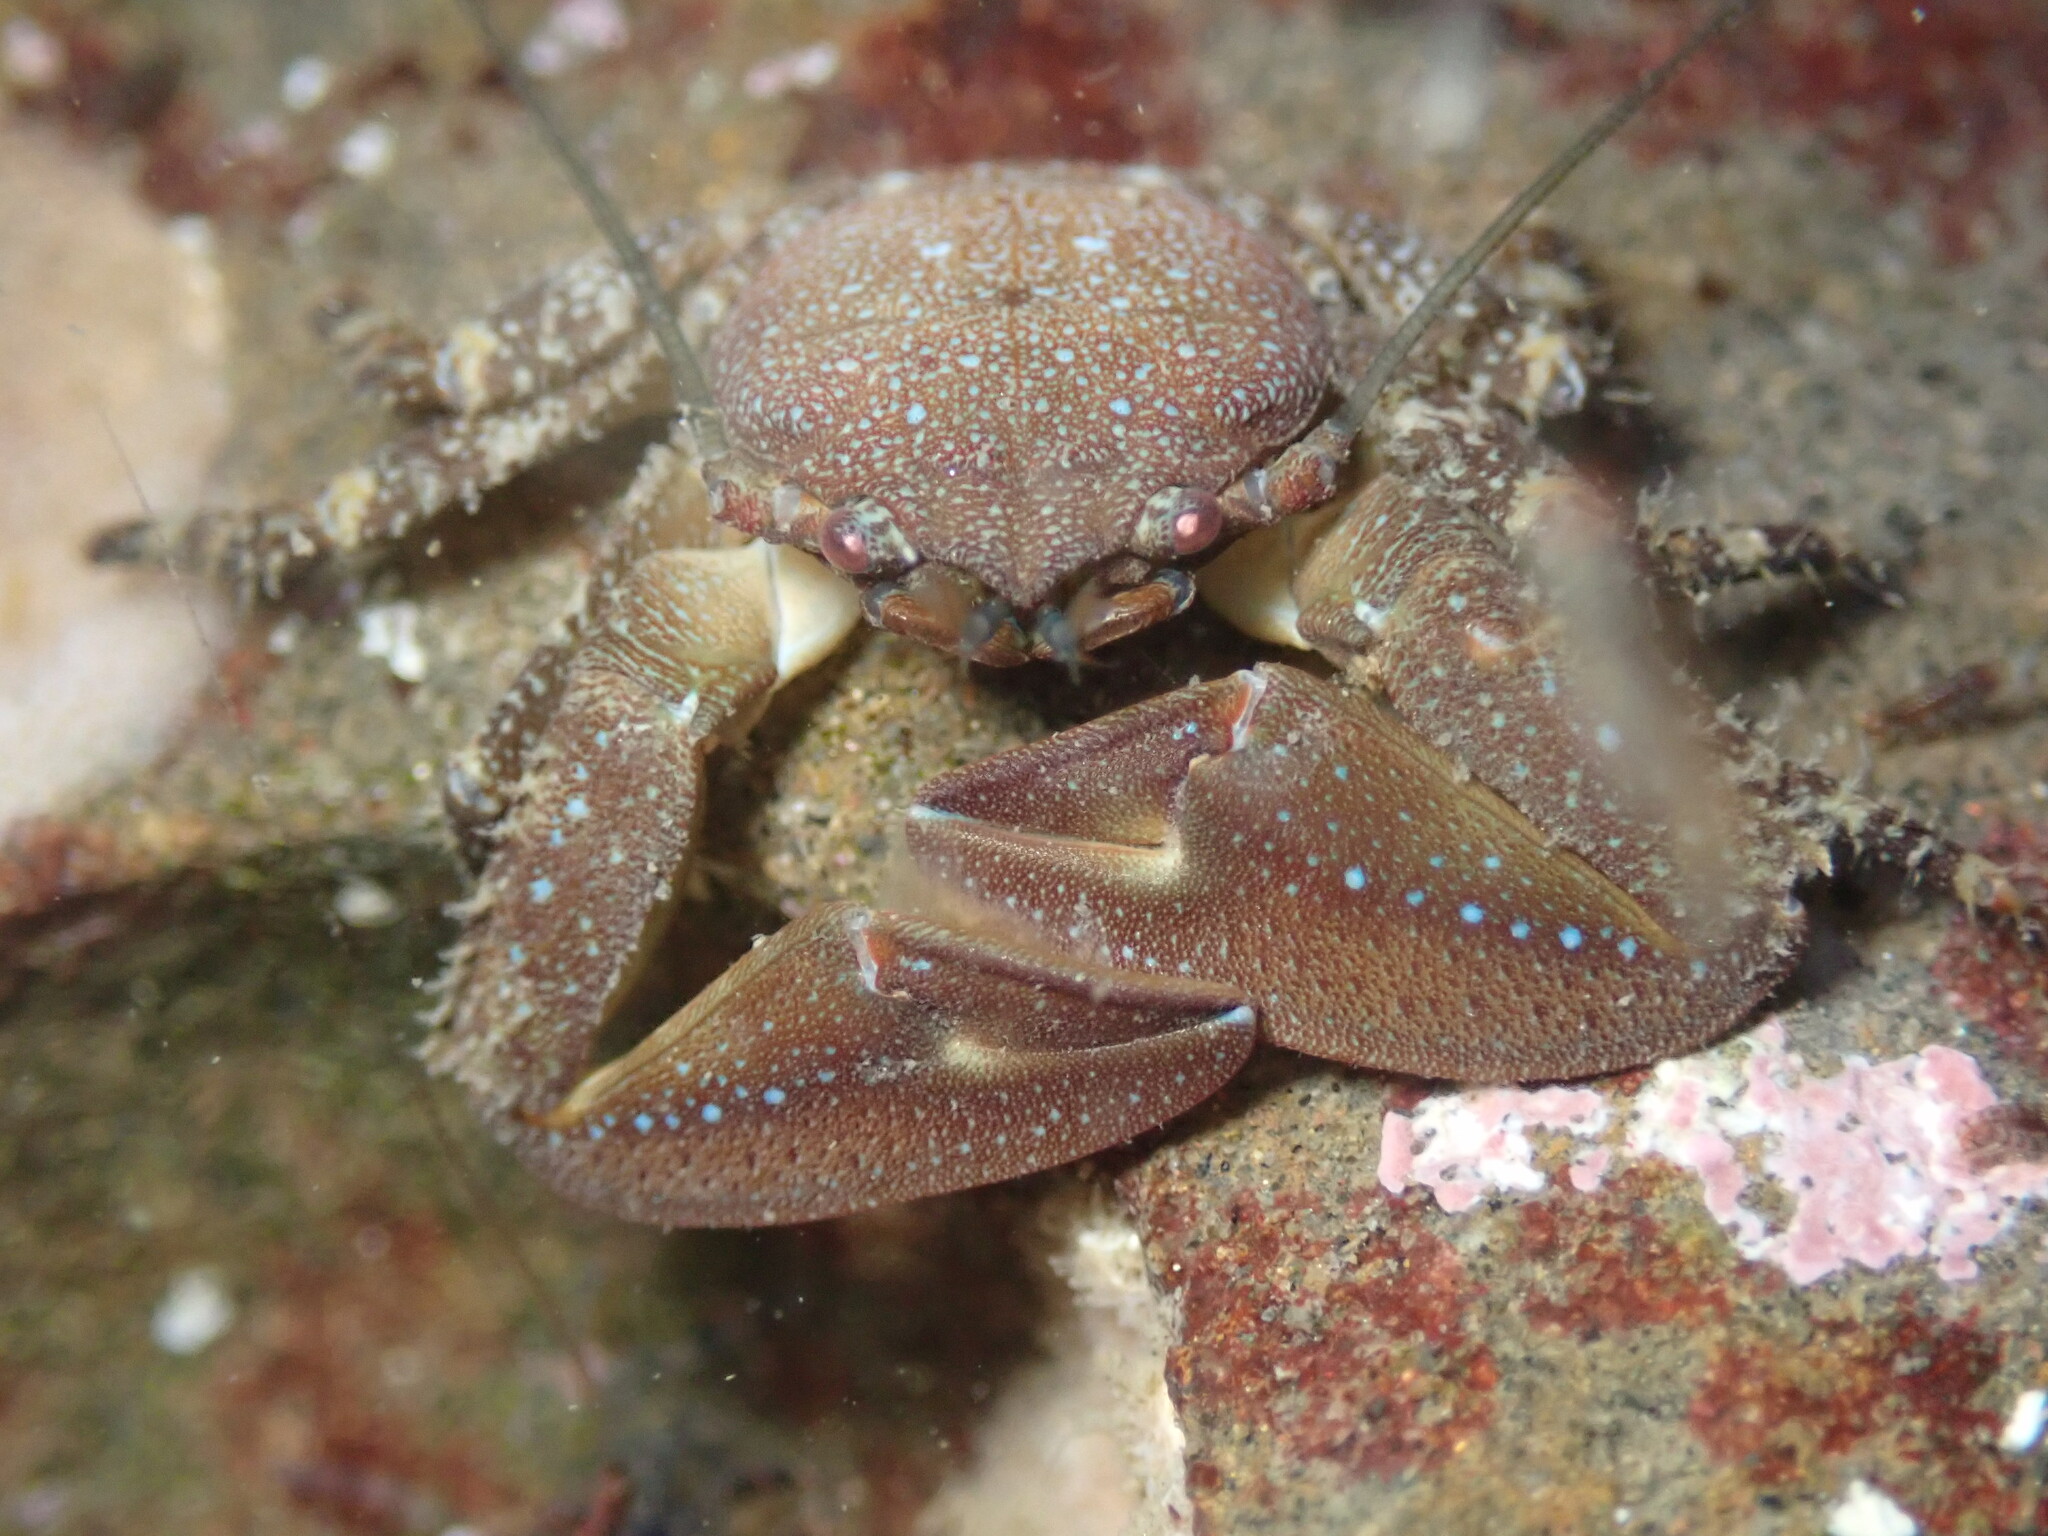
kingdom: Animalia
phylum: Arthropoda
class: Malacostraca
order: Decapoda
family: Porcellanidae
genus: Petrolisthes
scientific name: Petrolisthes manimaculis
